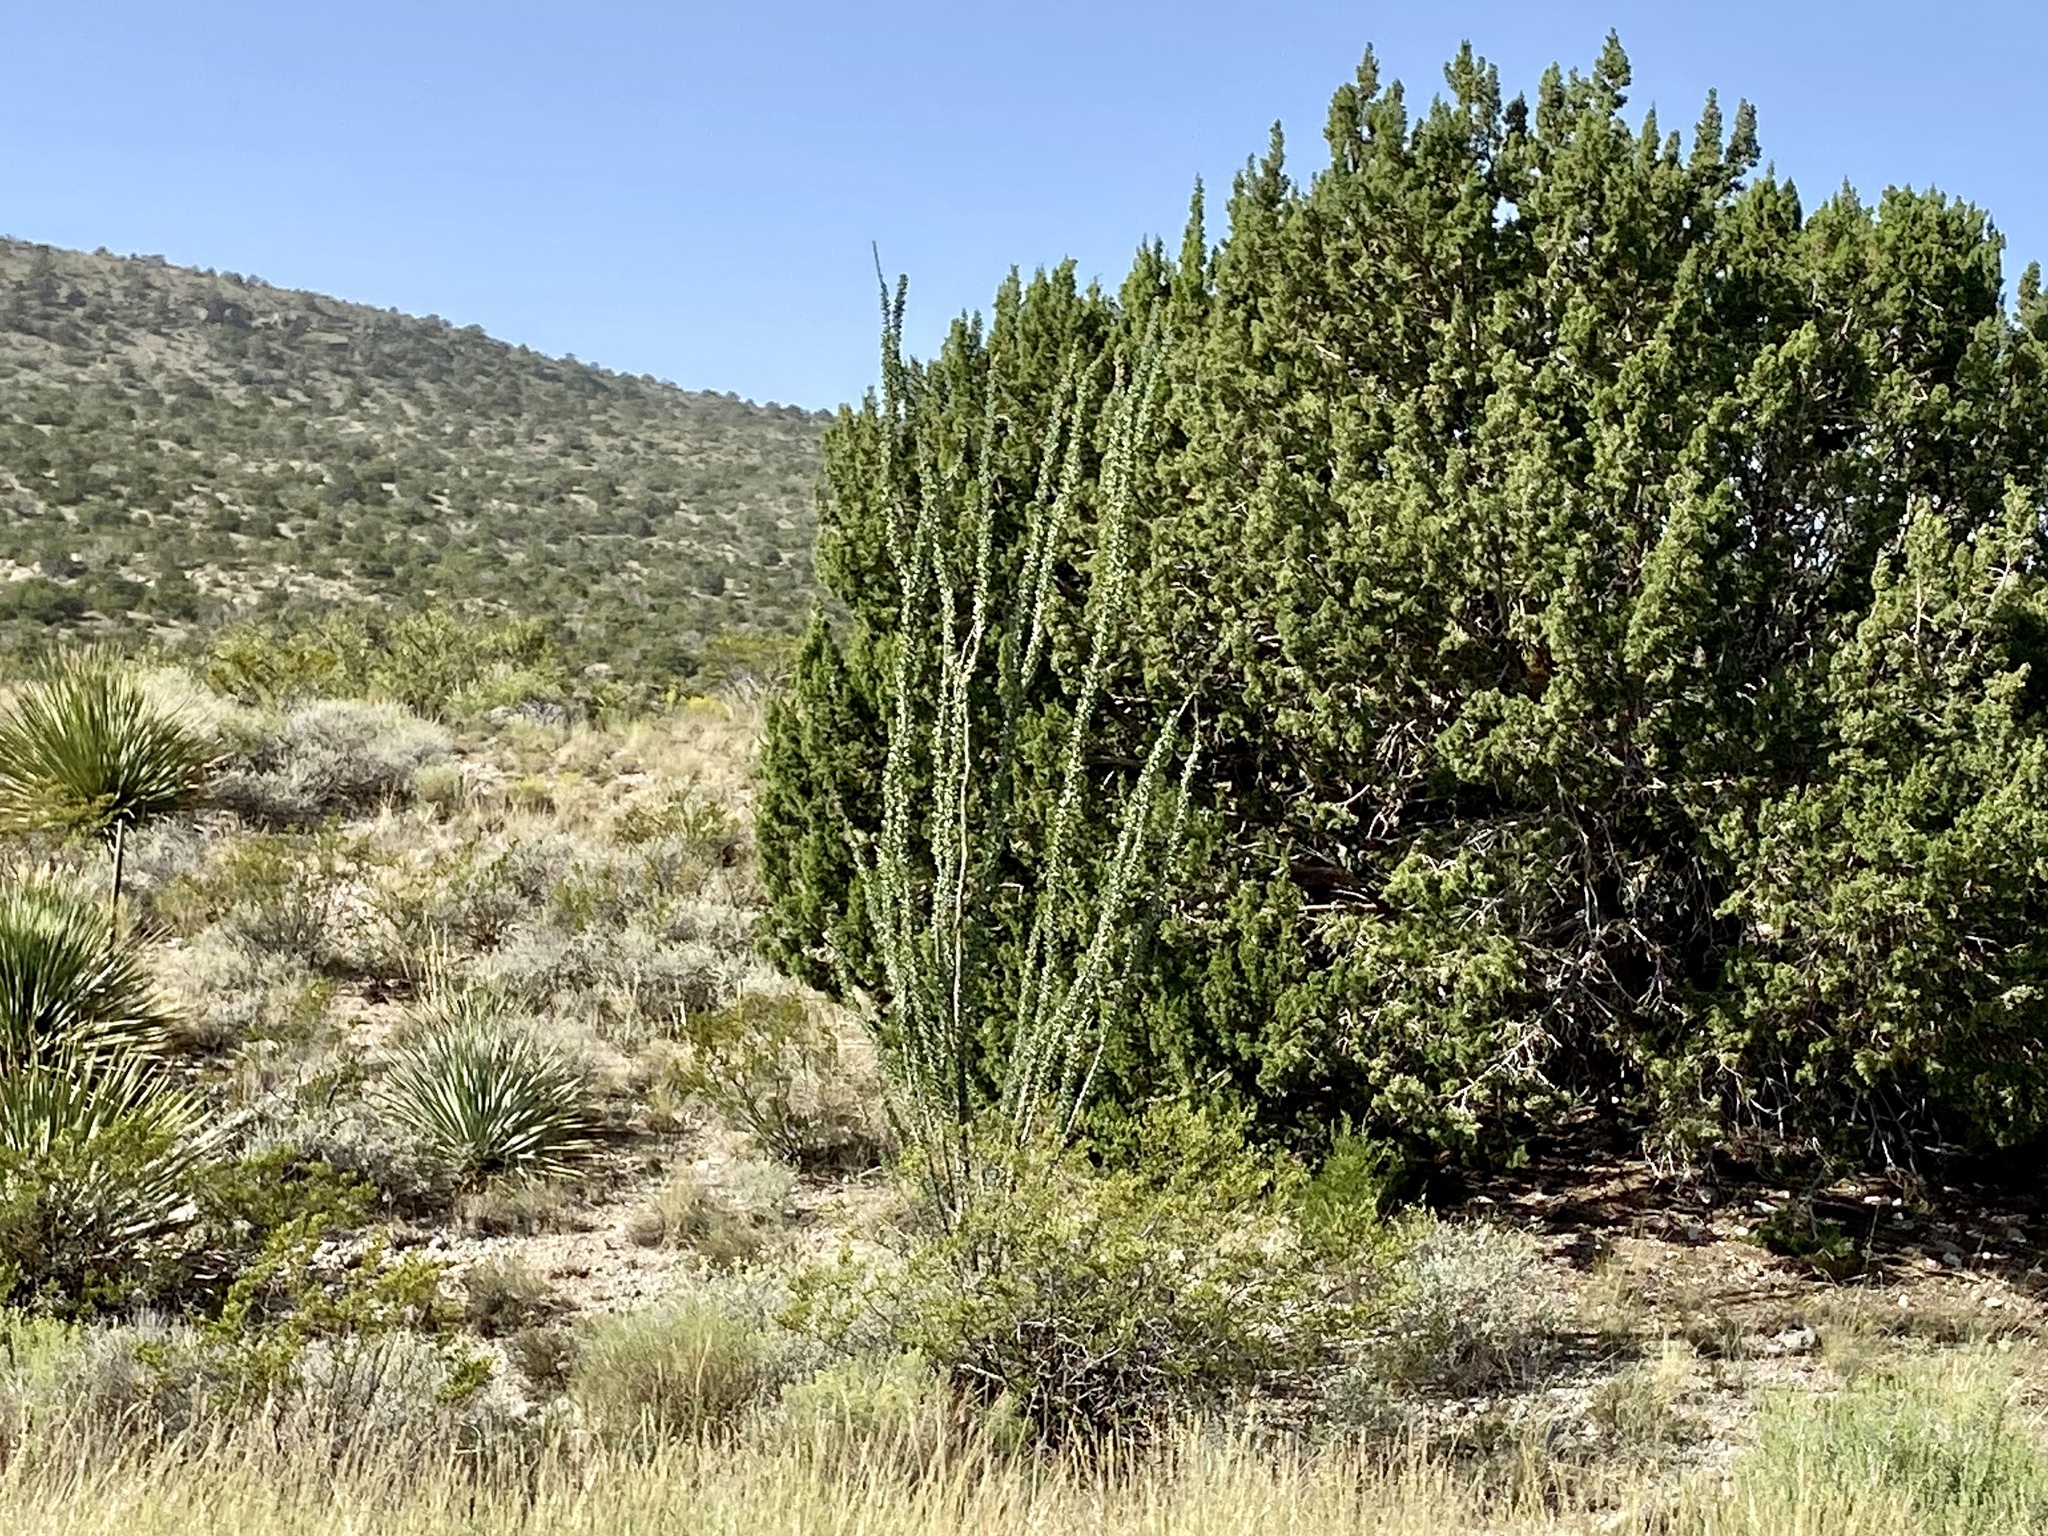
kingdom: Plantae
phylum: Tracheophyta
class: Magnoliopsida
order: Ericales
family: Fouquieriaceae
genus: Fouquieria
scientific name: Fouquieria splendens
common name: Vine-cactus
